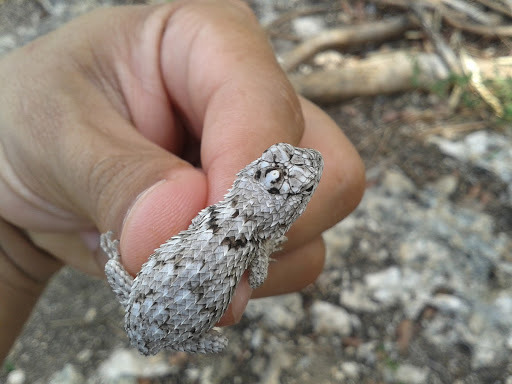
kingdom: Animalia
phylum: Chordata
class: Squamata
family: Phrynosomatidae
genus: Sceloporus
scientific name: Sceloporus lundelli
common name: Lundell's spiny lizard
